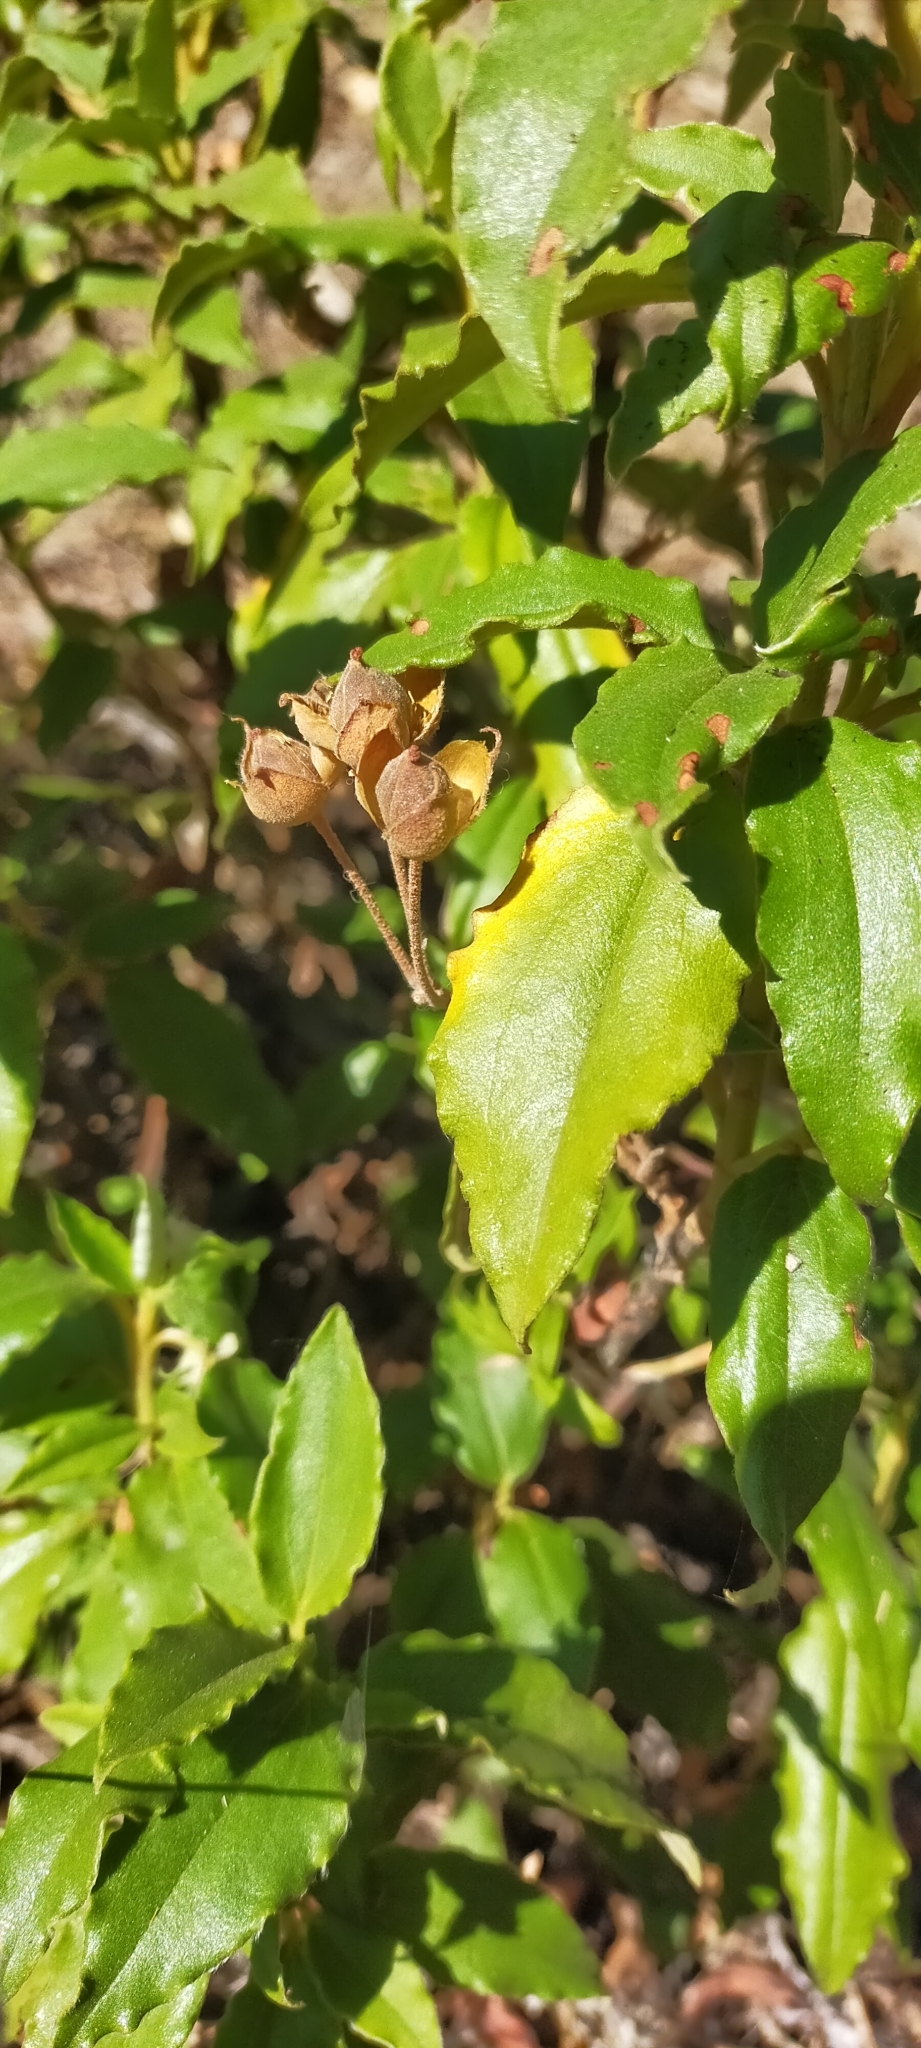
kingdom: Plantae
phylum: Tracheophyta
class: Magnoliopsida
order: Malvales
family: Cistaceae
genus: Cistus
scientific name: Cistus laurifolius
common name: Laurel-leaved cistus
